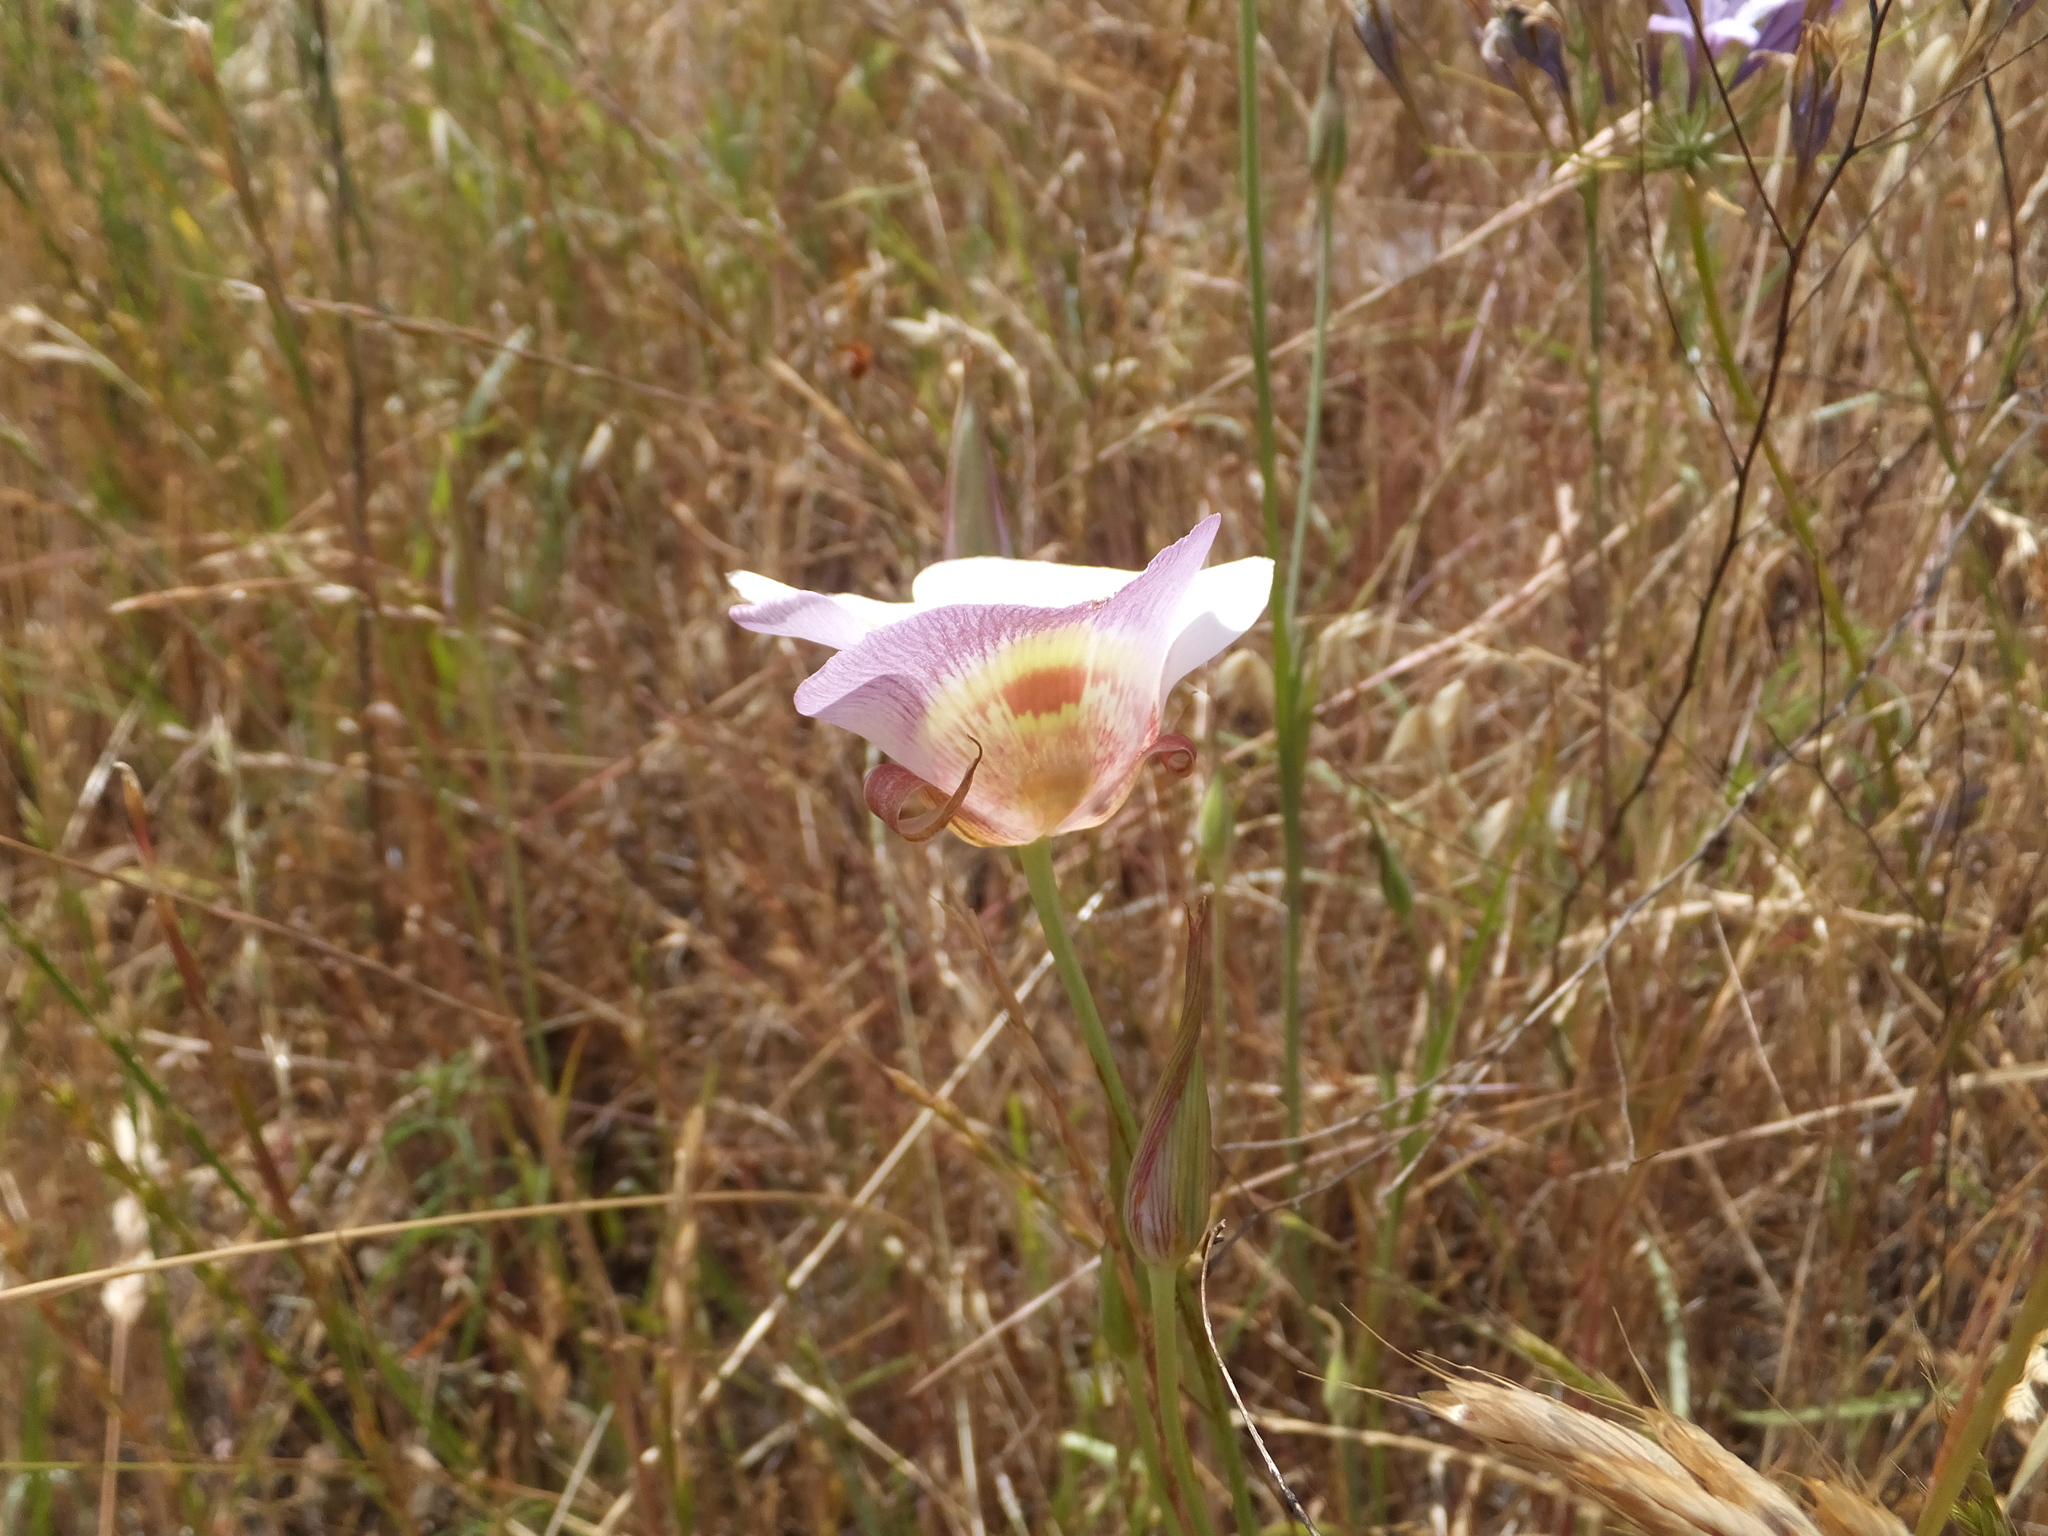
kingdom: Plantae
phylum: Tracheophyta
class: Liliopsida
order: Liliales
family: Liliaceae
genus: Calochortus
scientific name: Calochortus argillosus
